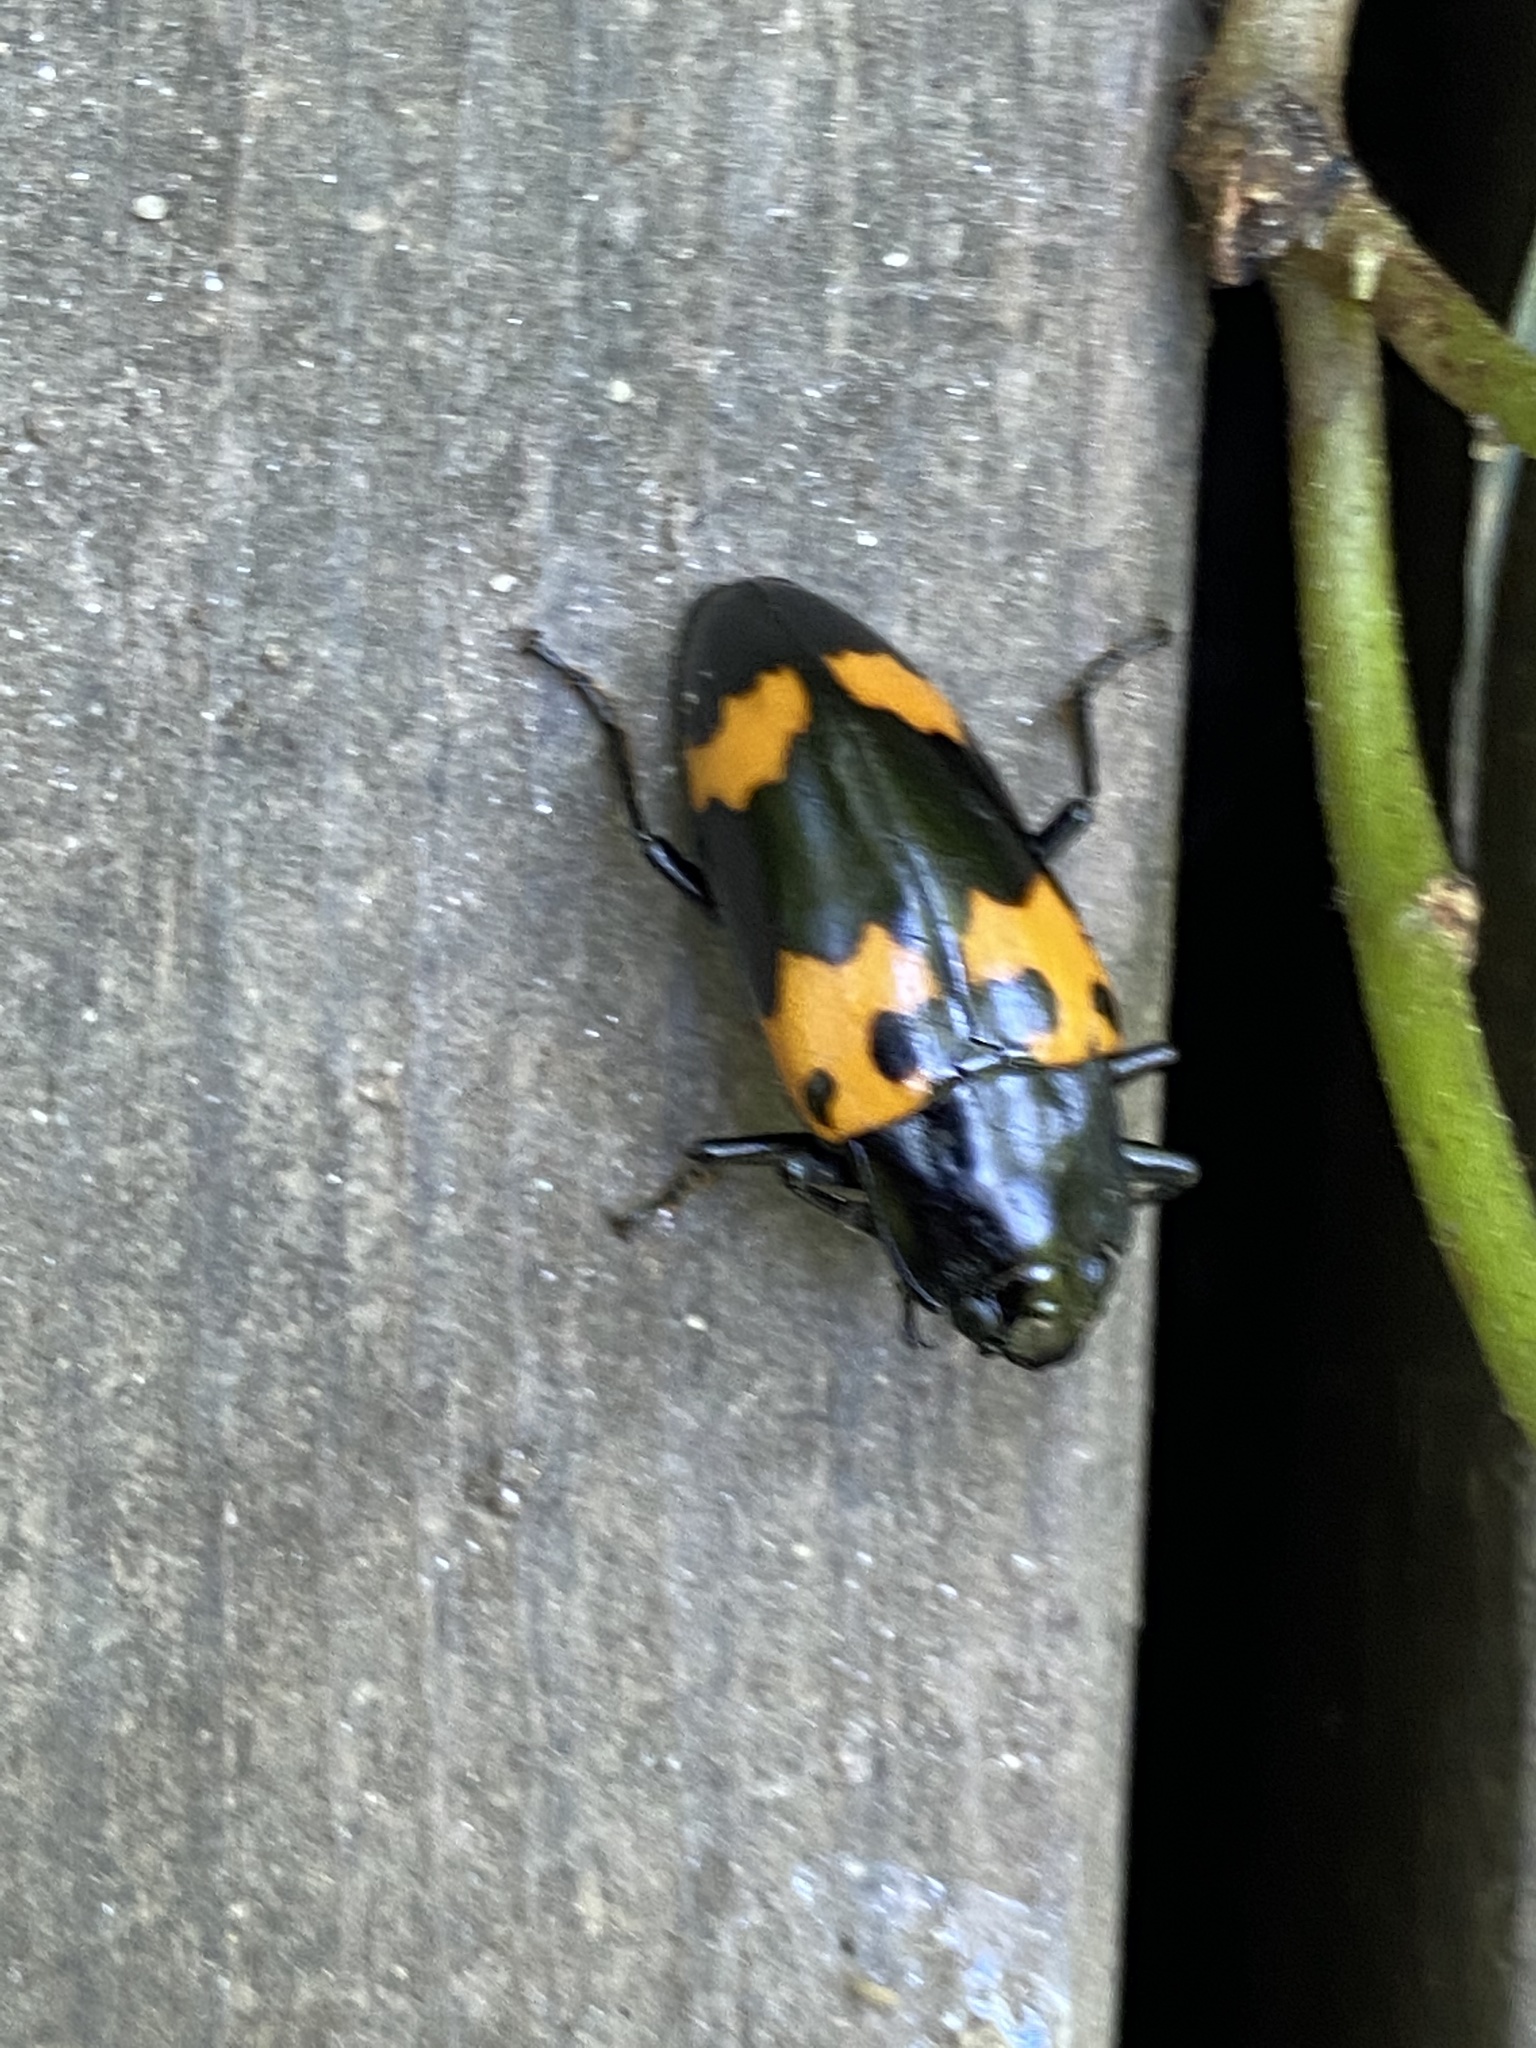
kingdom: Animalia
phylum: Arthropoda
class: Insecta
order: Coleoptera
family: Erotylidae
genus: Megalodacne
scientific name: Megalodacne heros
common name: Pleasing fungus beetle
